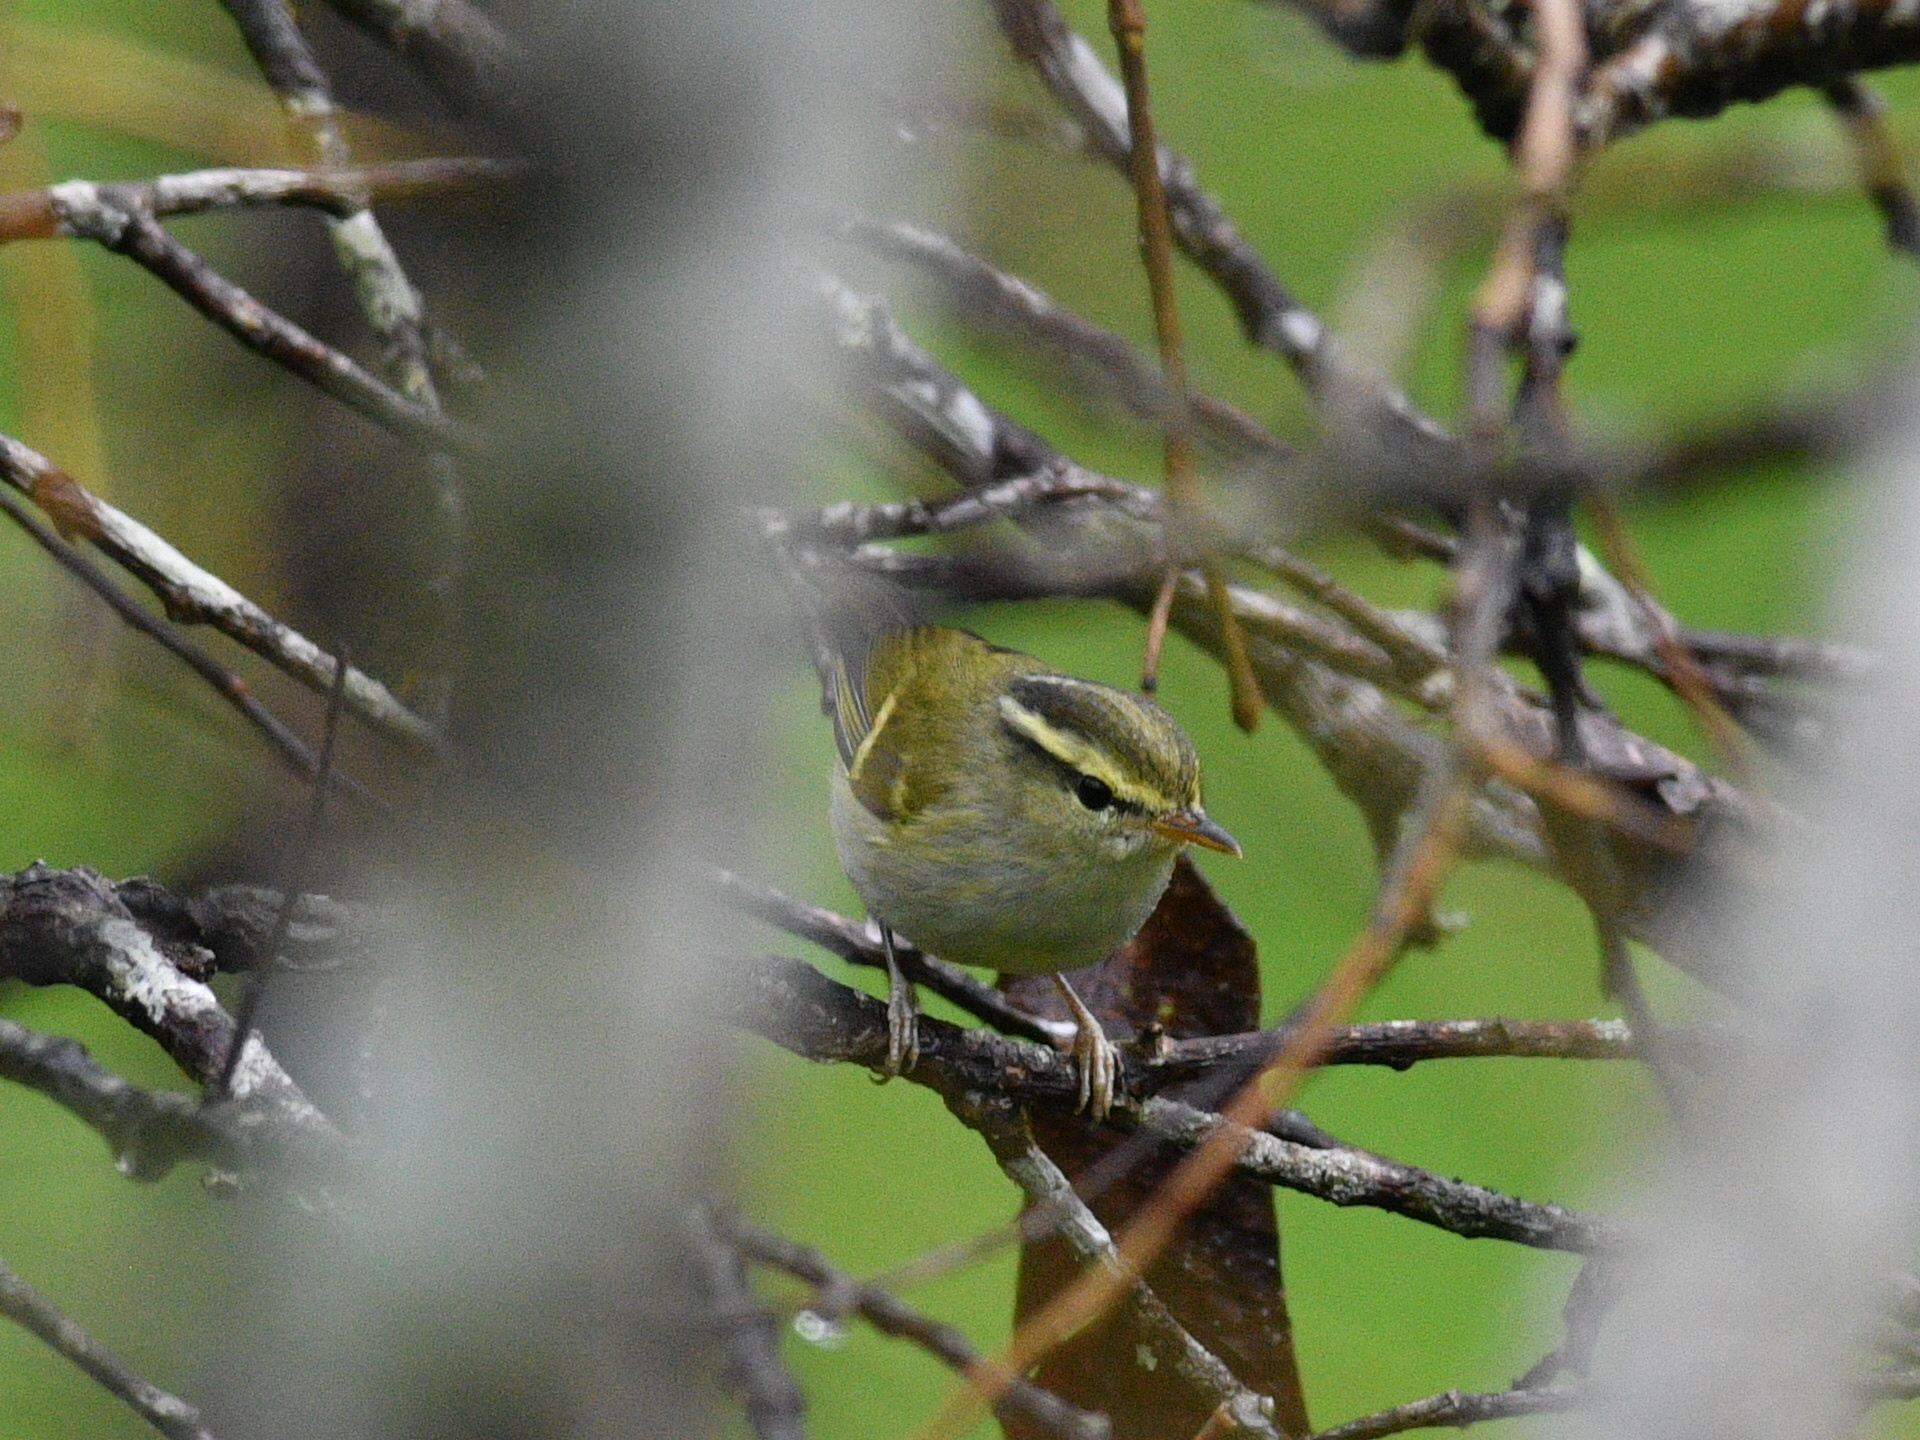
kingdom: Animalia
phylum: Chordata
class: Aves
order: Passeriformes
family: Phylloscopidae
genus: Phylloscopus
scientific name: Phylloscopus proregulus
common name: Pallas's leaf warbler
